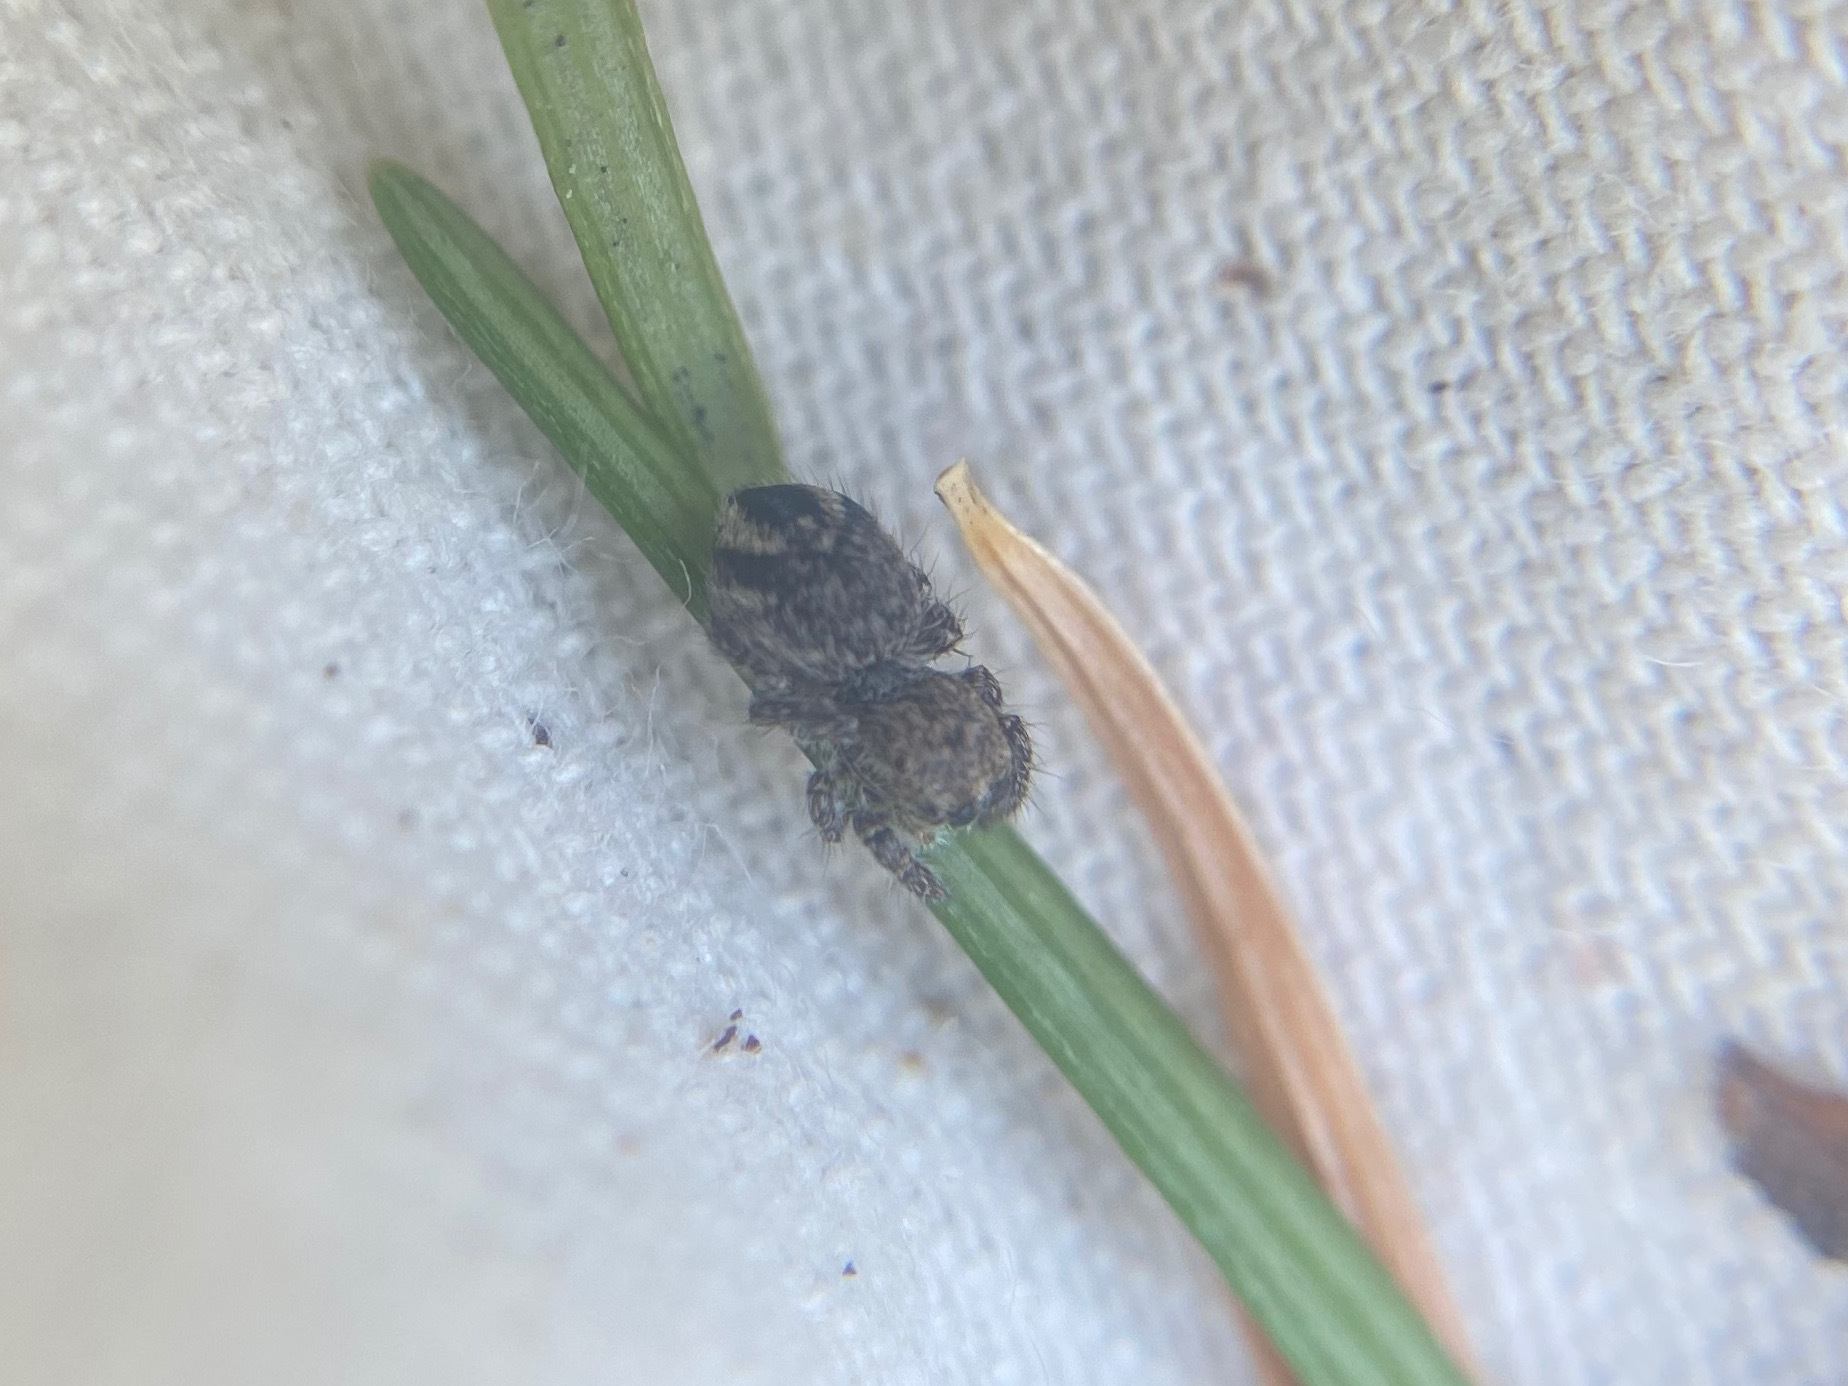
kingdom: Animalia
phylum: Arthropoda
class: Arachnida
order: Araneae
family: Salticidae
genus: Habronattus
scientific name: Habronattus hirsutus
